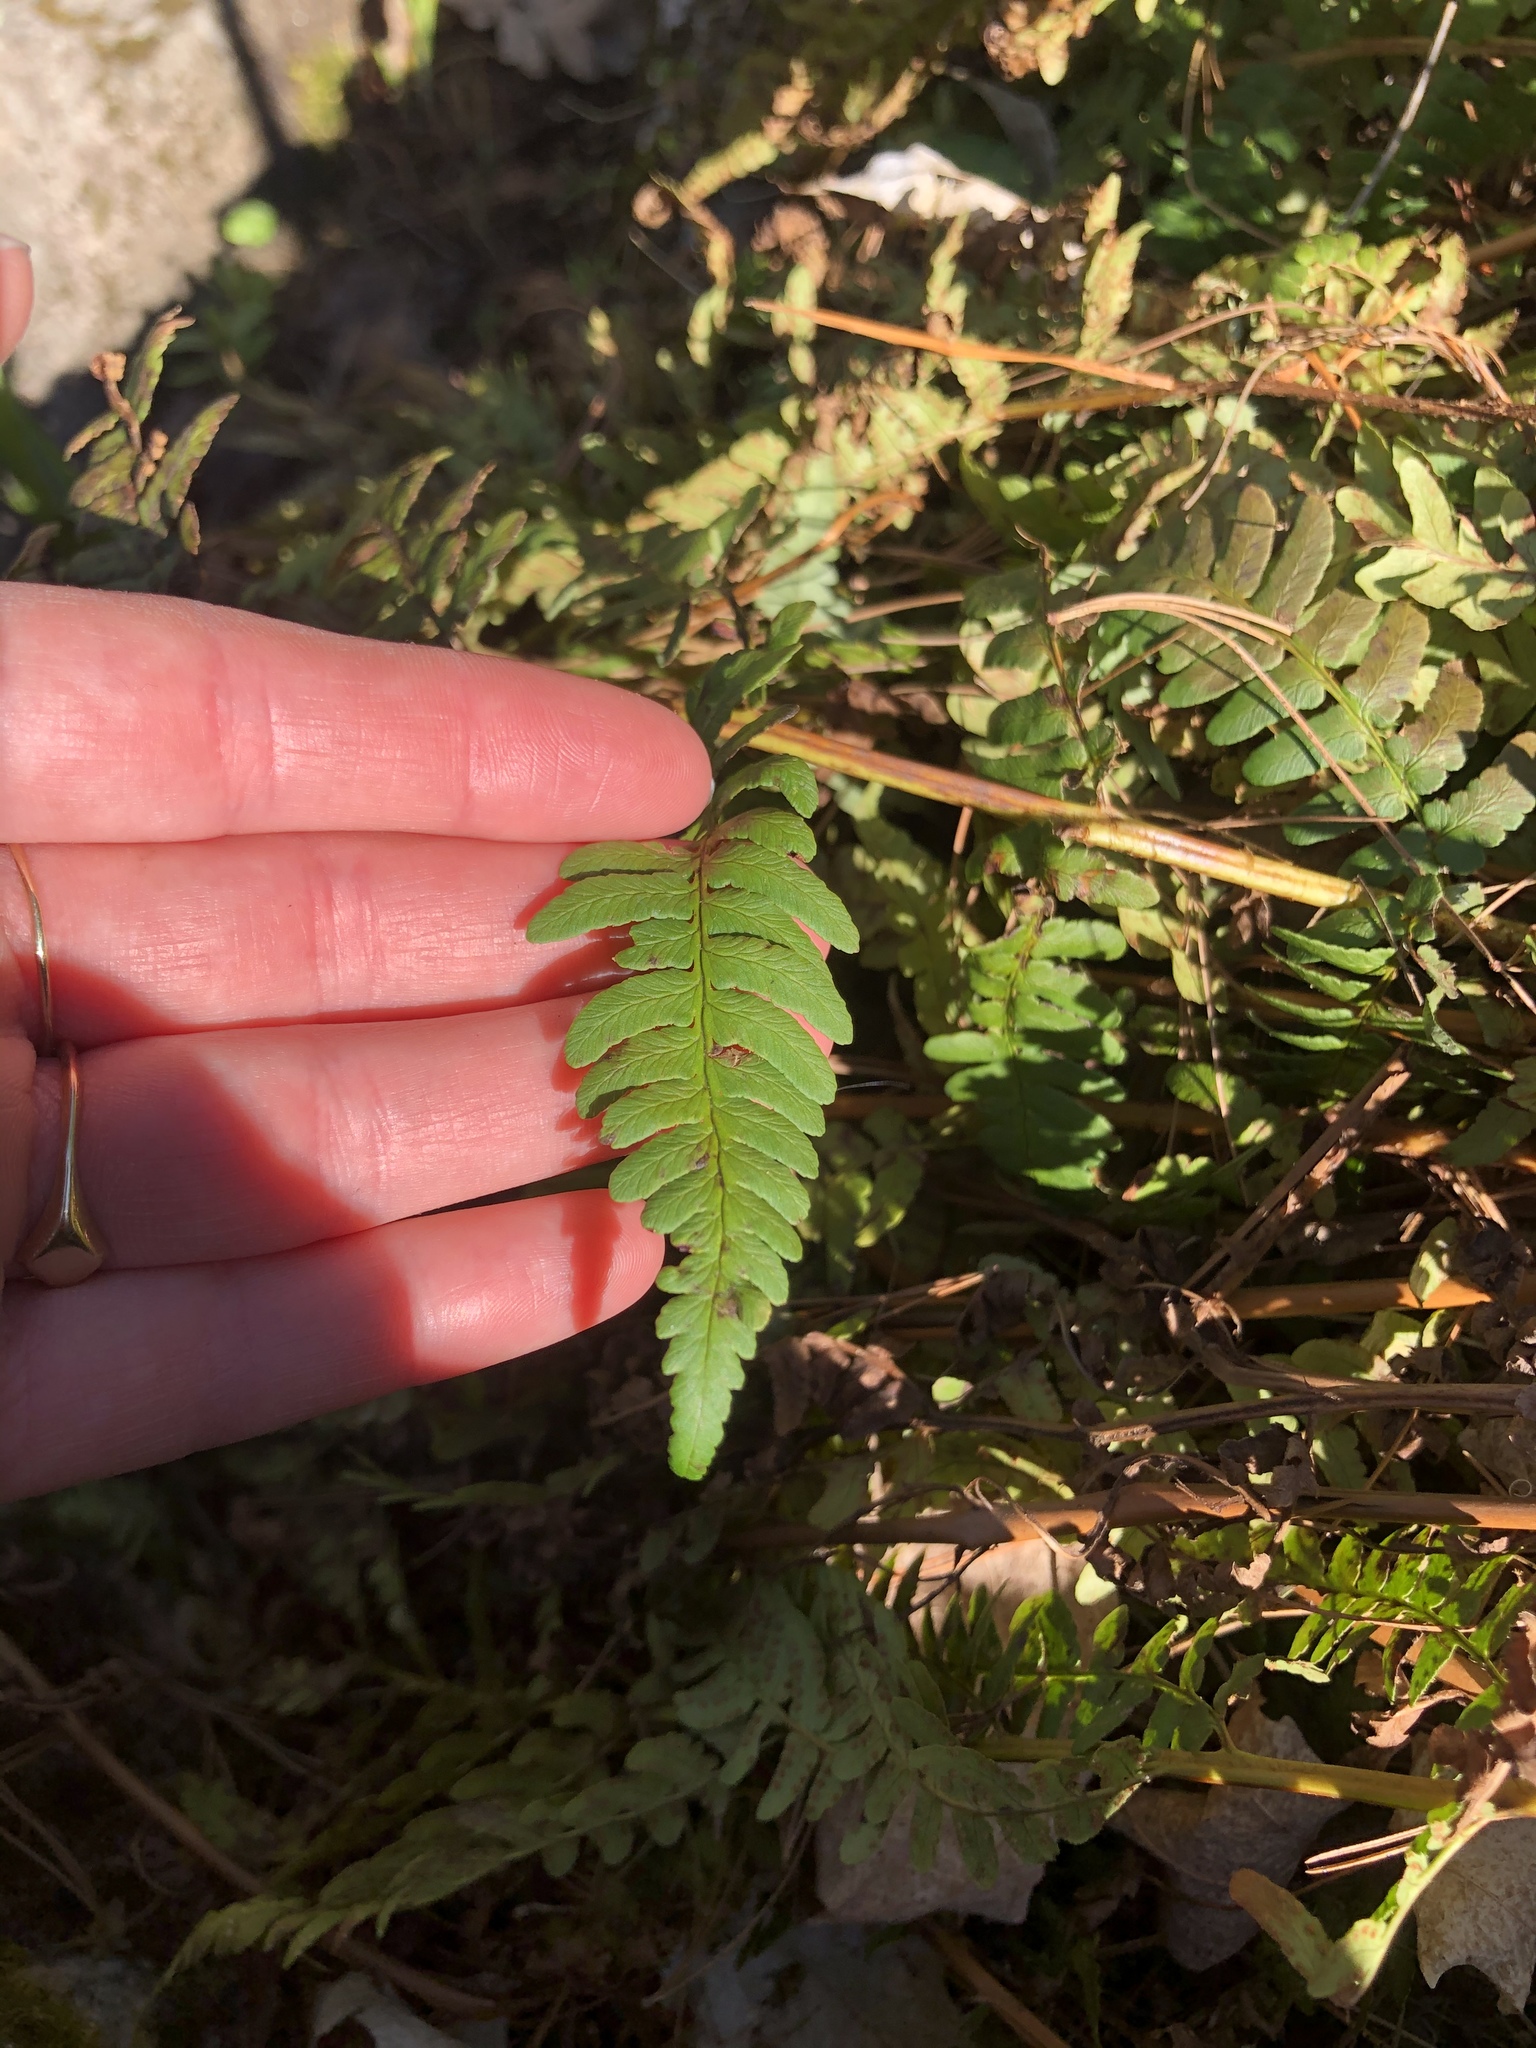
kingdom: Plantae
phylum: Tracheophyta
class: Polypodiopsida
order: Polypodiales
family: Dryopteridaceae
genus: Dryopteris
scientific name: Dryopteris marginalis
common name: Marginal wood fern
